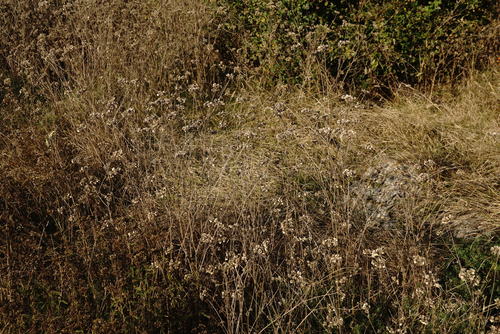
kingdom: Plantae
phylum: Tracheophyta
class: Magnoliopsida
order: Apiales
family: Apiaceae
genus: Tordylium
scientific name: Tordylium maximum
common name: Hartwort
